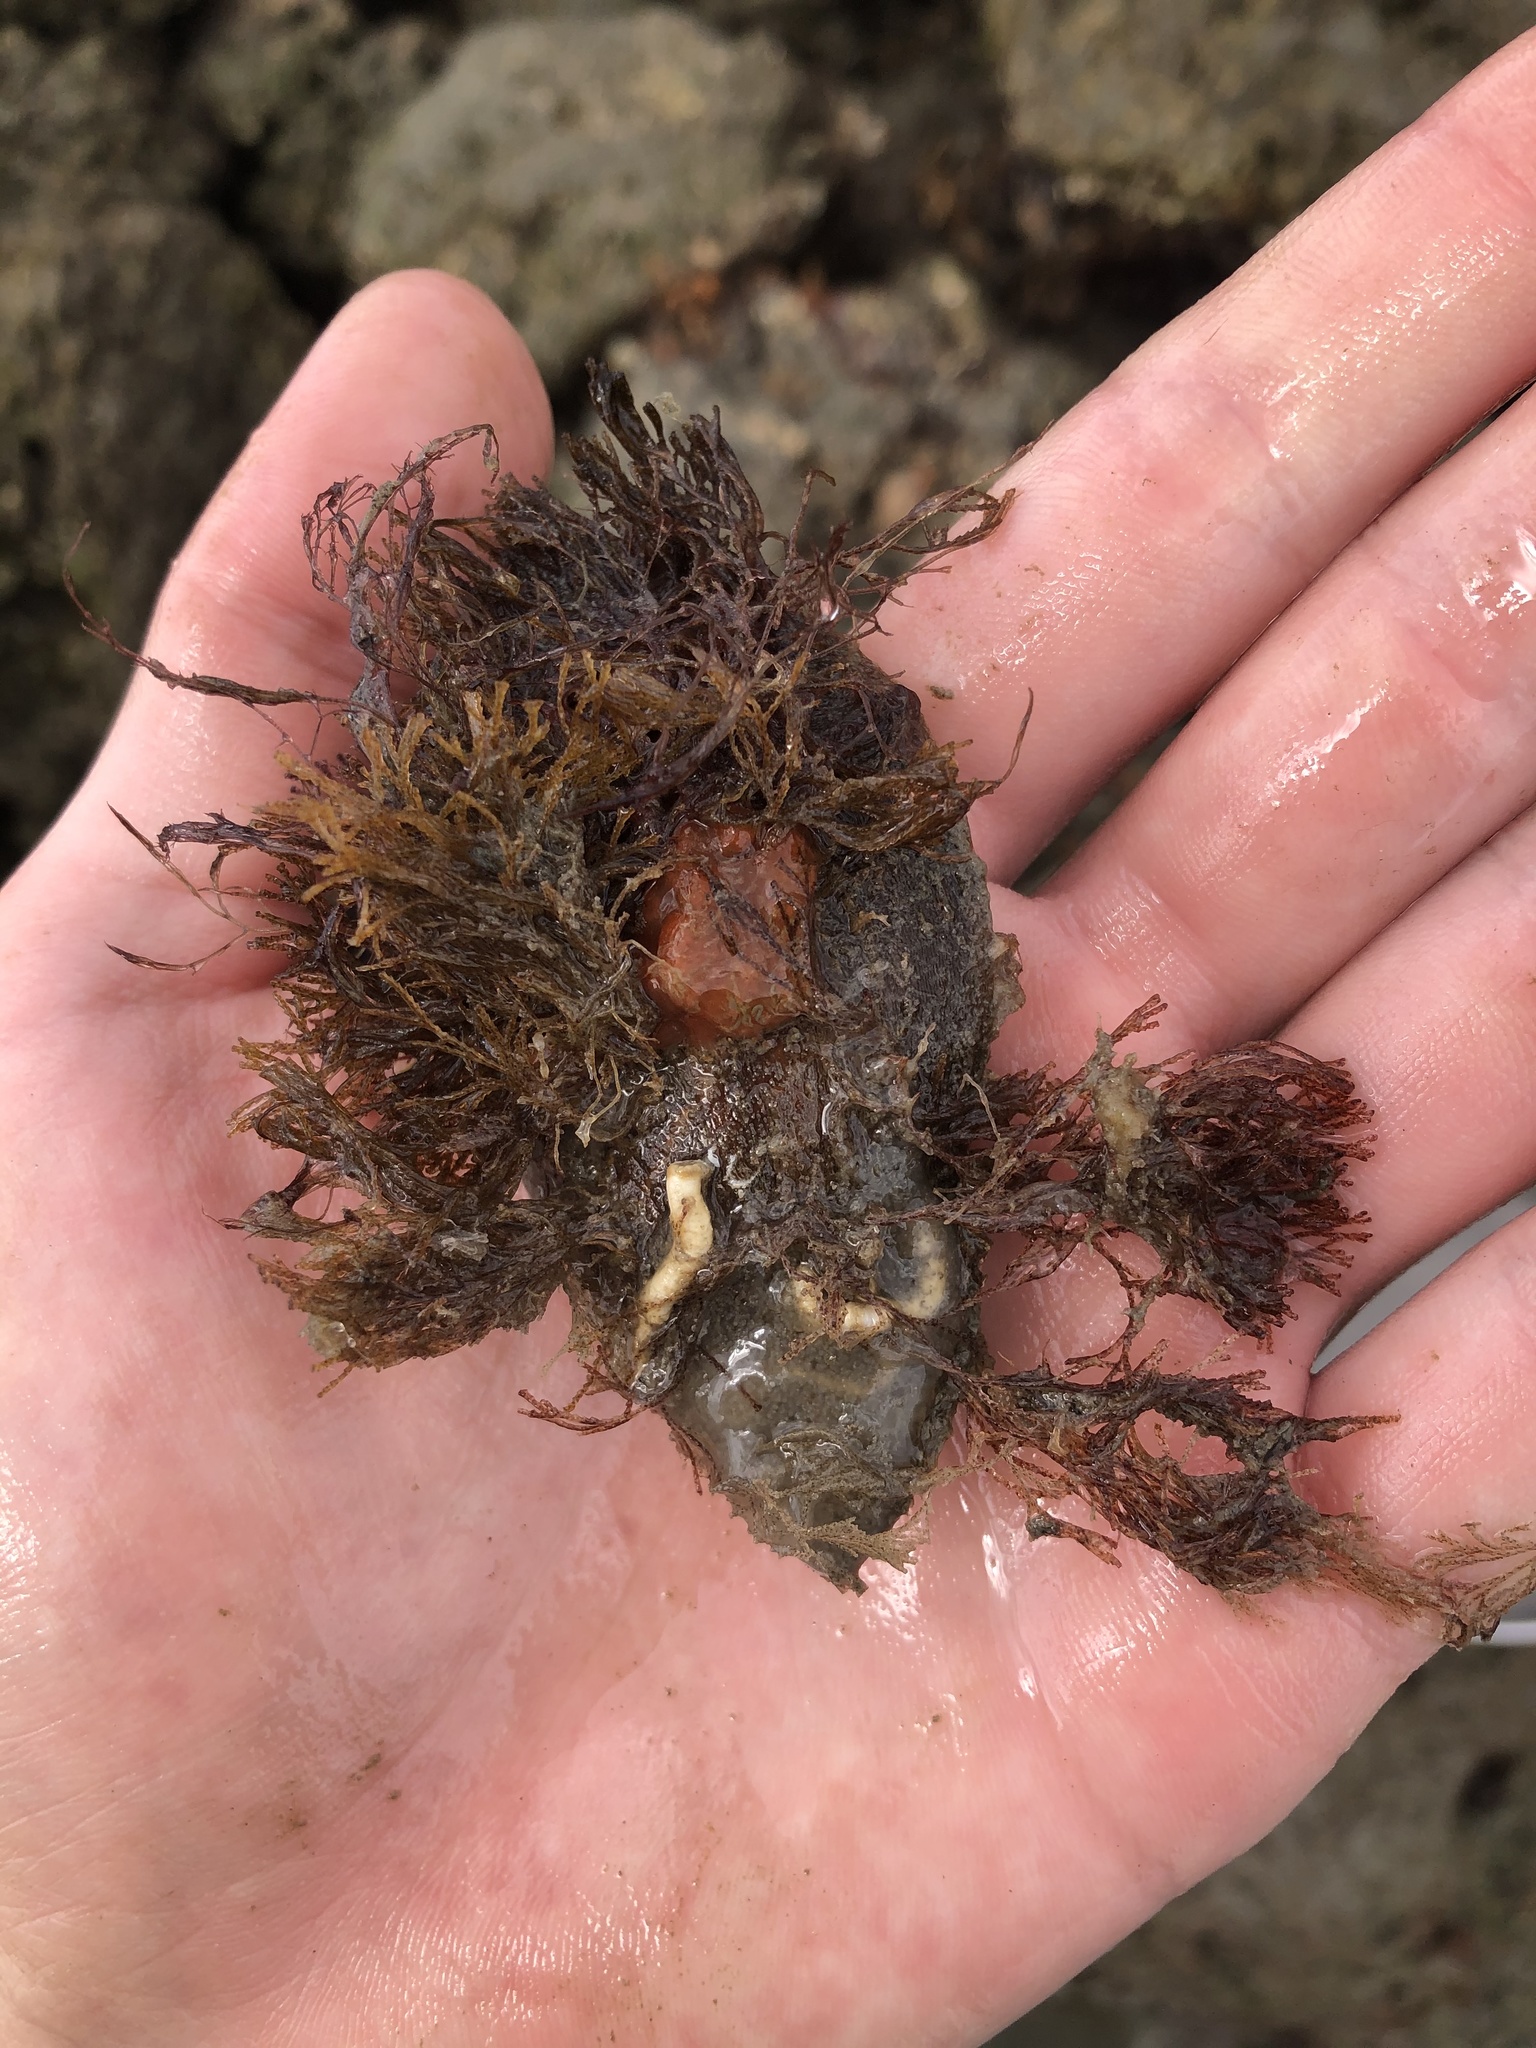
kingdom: Animalia
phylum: Mollusca
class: Bivalvia
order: Ostreida
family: Pteriidae
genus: Pteria
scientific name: Pteria colymbus
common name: Atlantic wing-oyster
